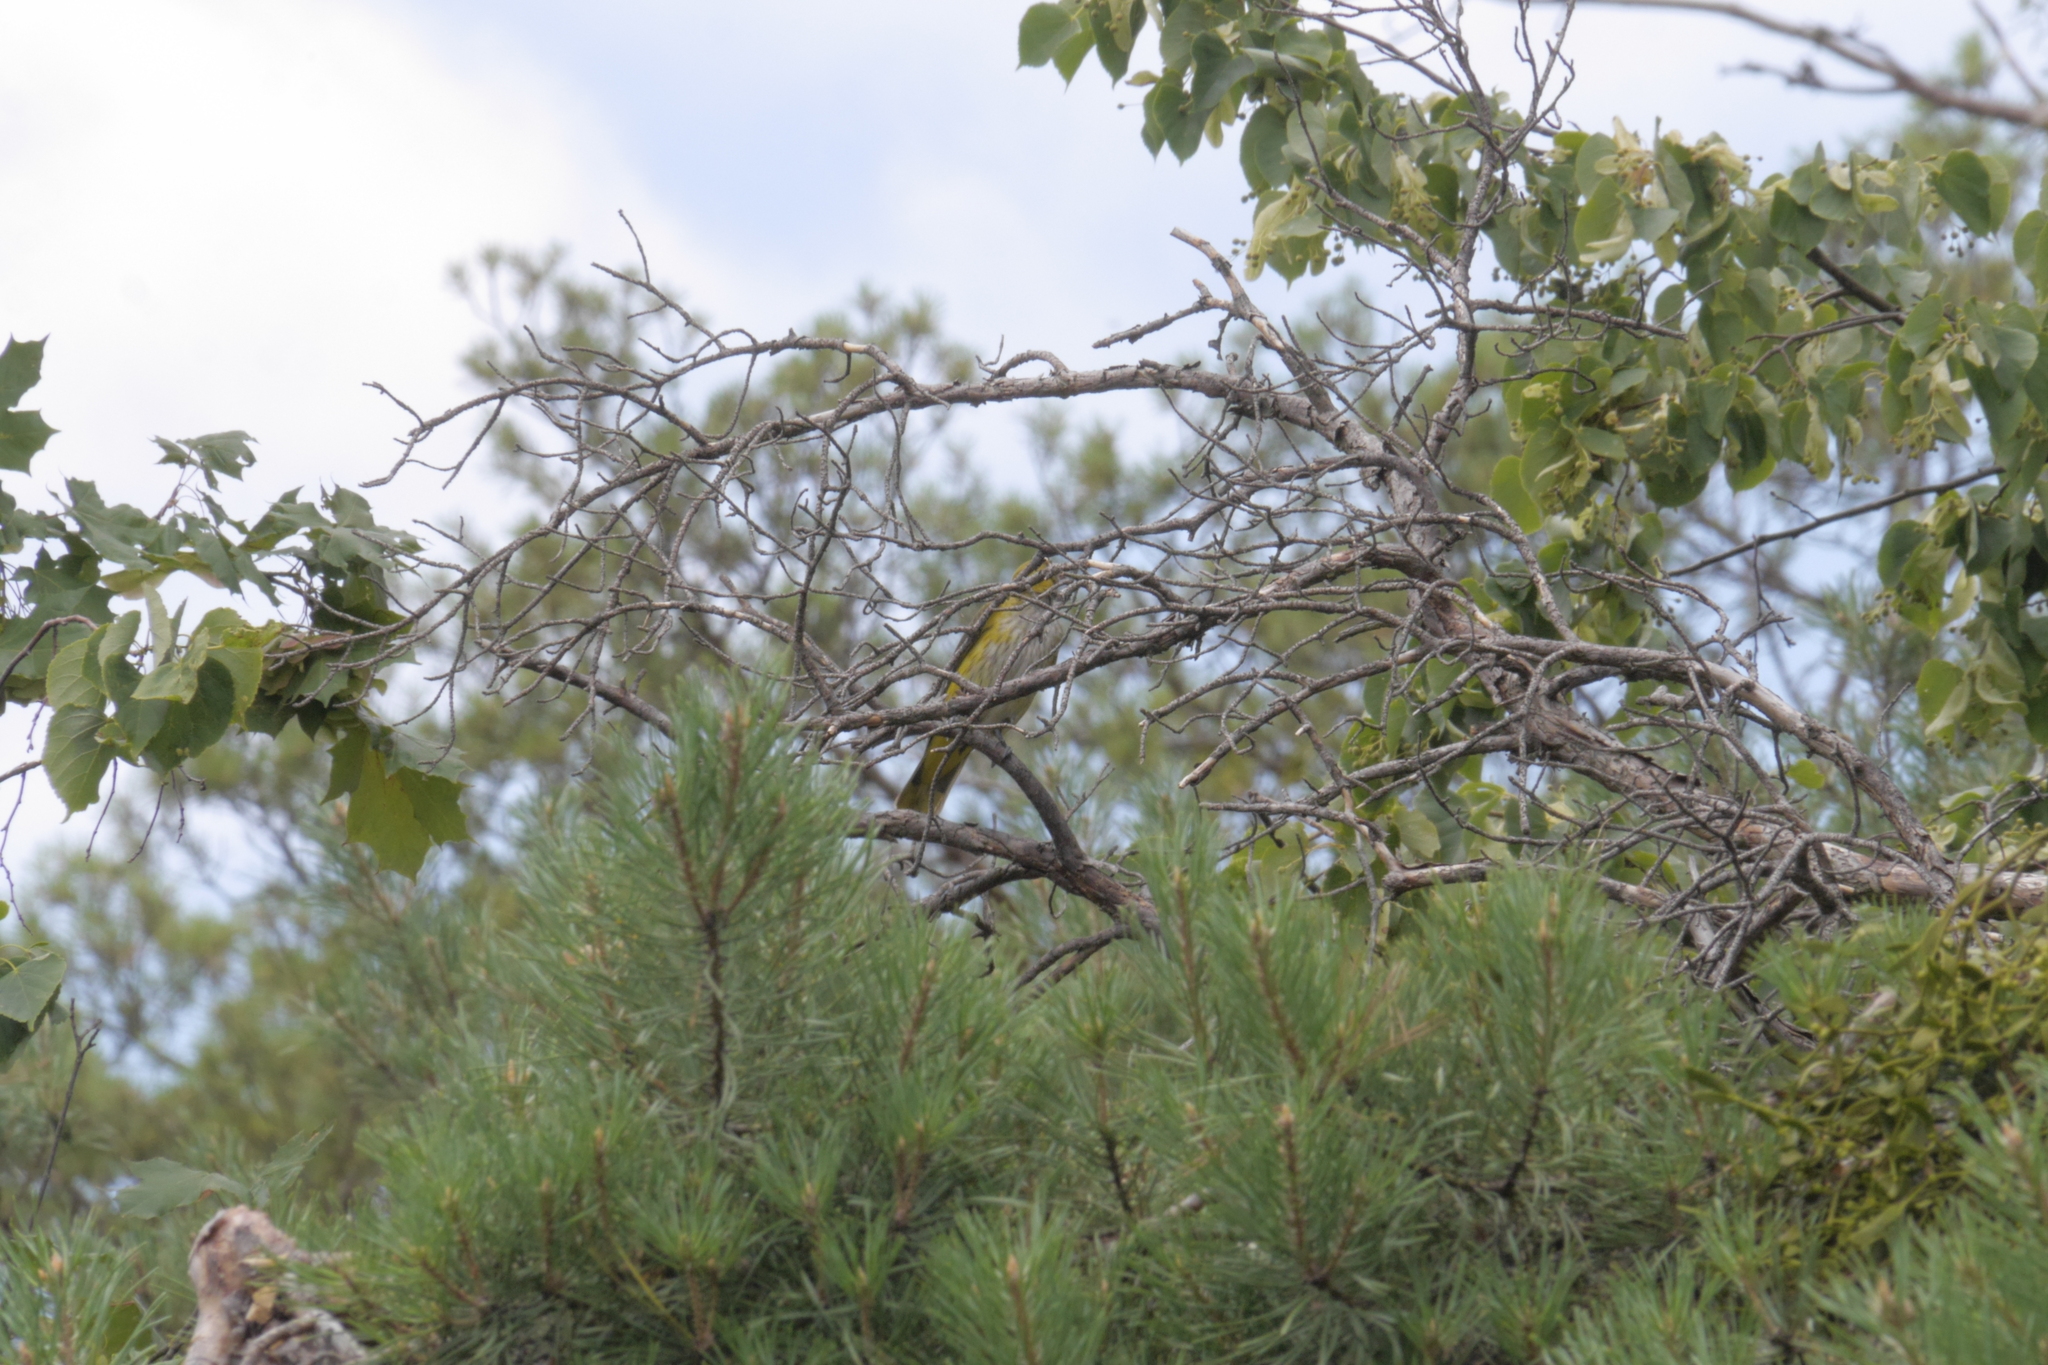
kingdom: Animalia
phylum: Chordata
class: Aves
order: Passeriformes
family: Oriolidae
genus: Oriolus
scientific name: Oriolus oriolus
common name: Eurasian golden oriole
